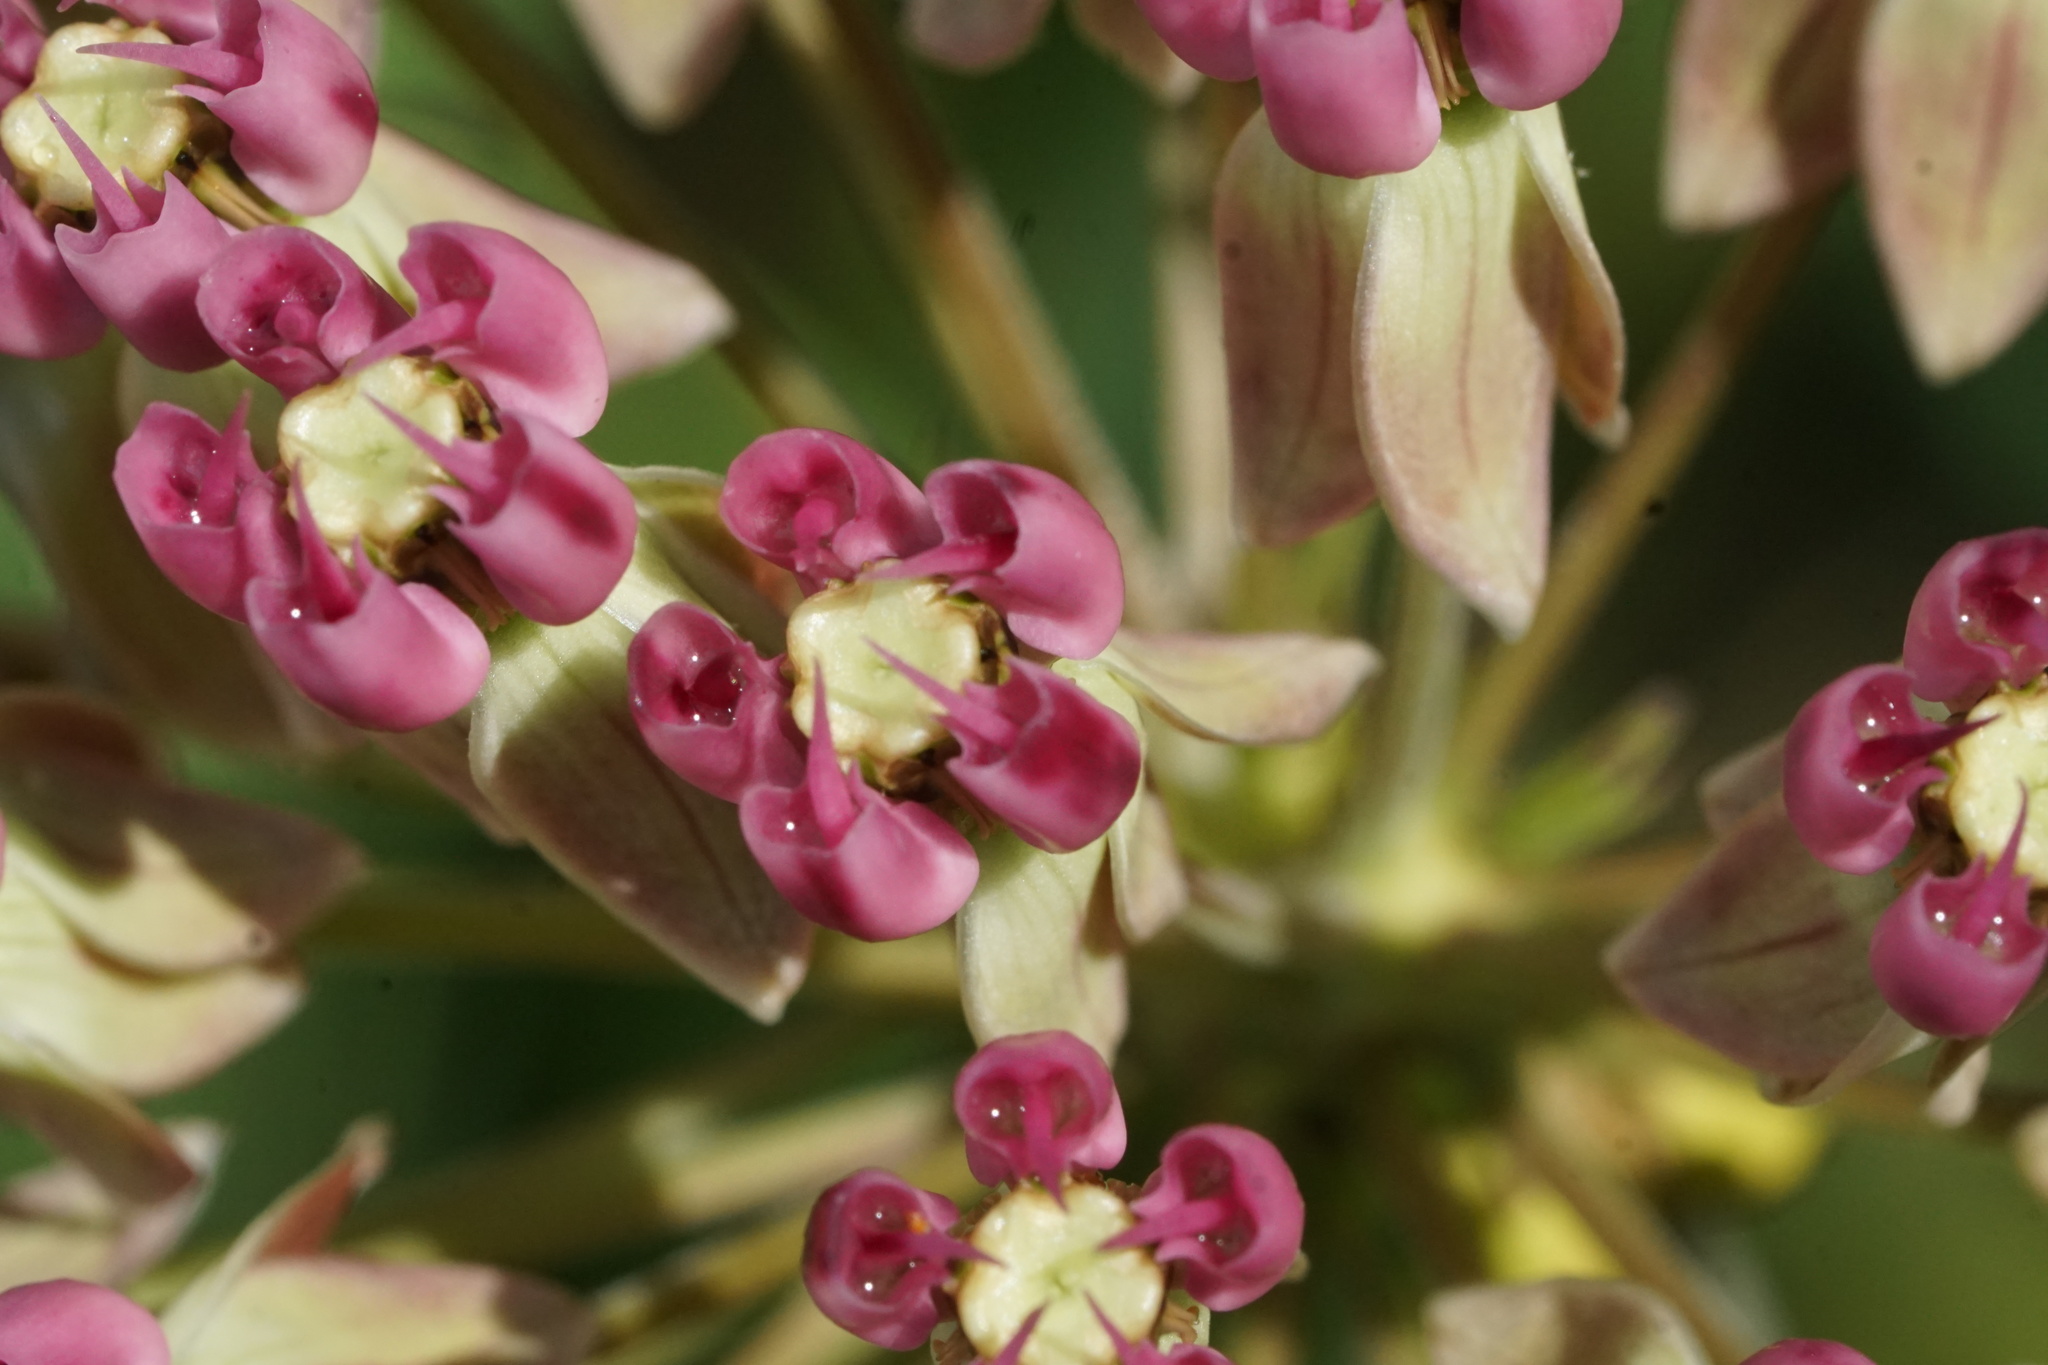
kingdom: Plantae
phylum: Tracheophyta
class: Magnoliopsida
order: Gentianales
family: Apocynaceae
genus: Asclepias
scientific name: Asclepias amplexicaulis
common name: Blunt-leaf milkweed
